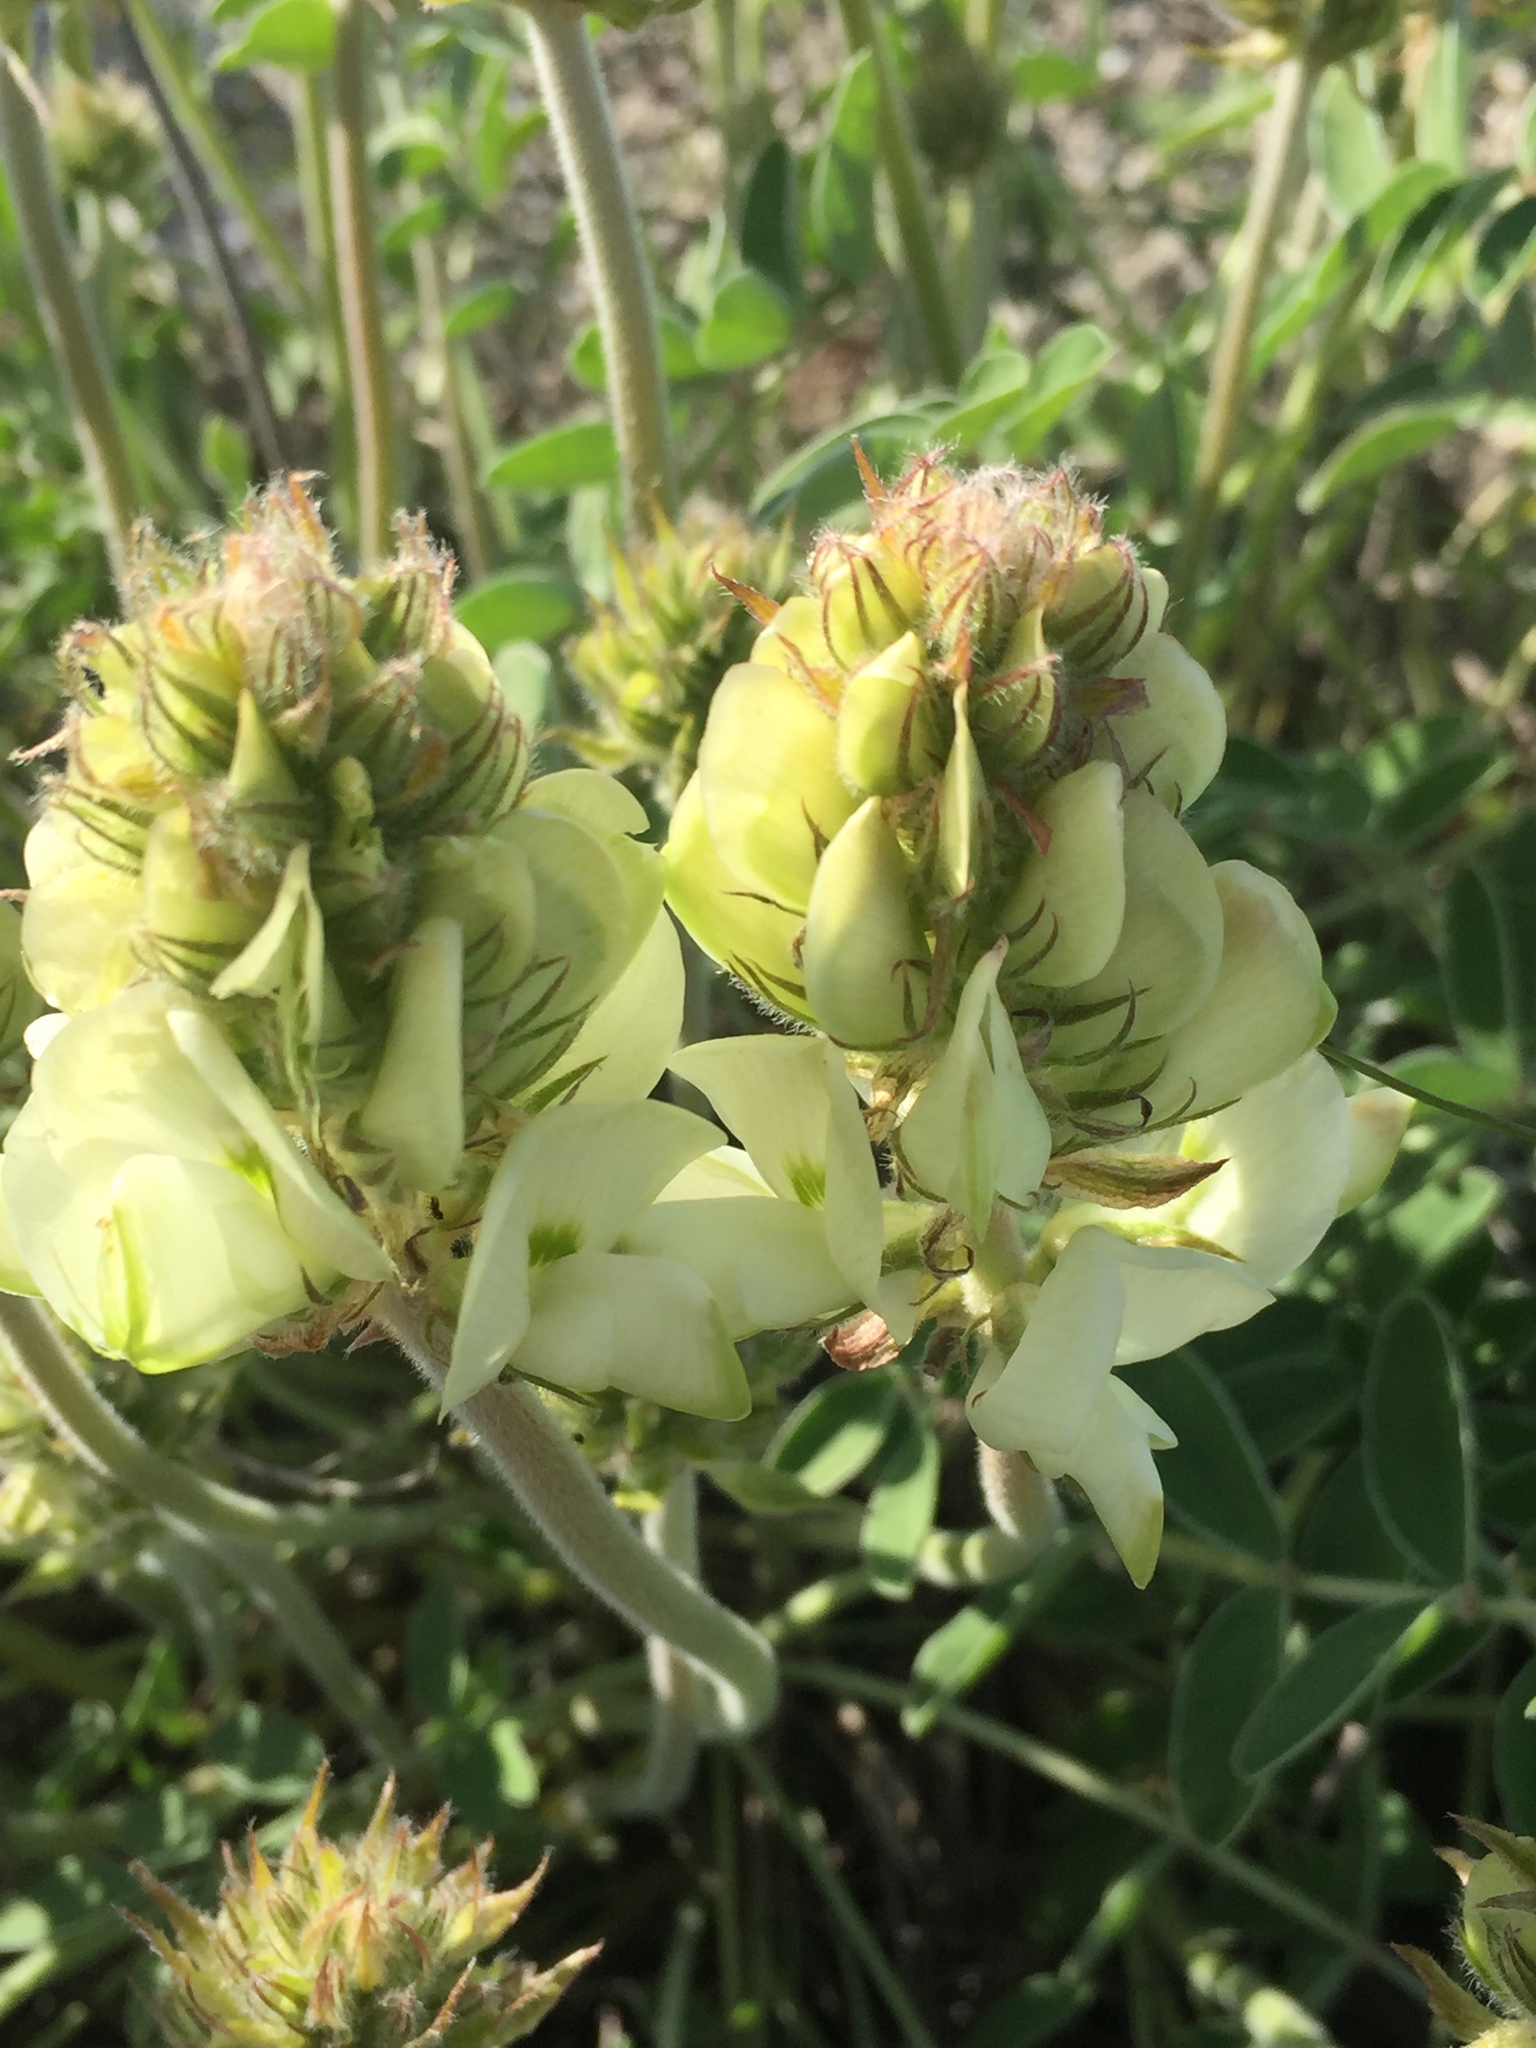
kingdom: Plantae
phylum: Tracheophyta
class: Magnoliopsida
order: Fabales
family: Fabaceae
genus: Hedysarum
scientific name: Hedysarum grandiflorum
